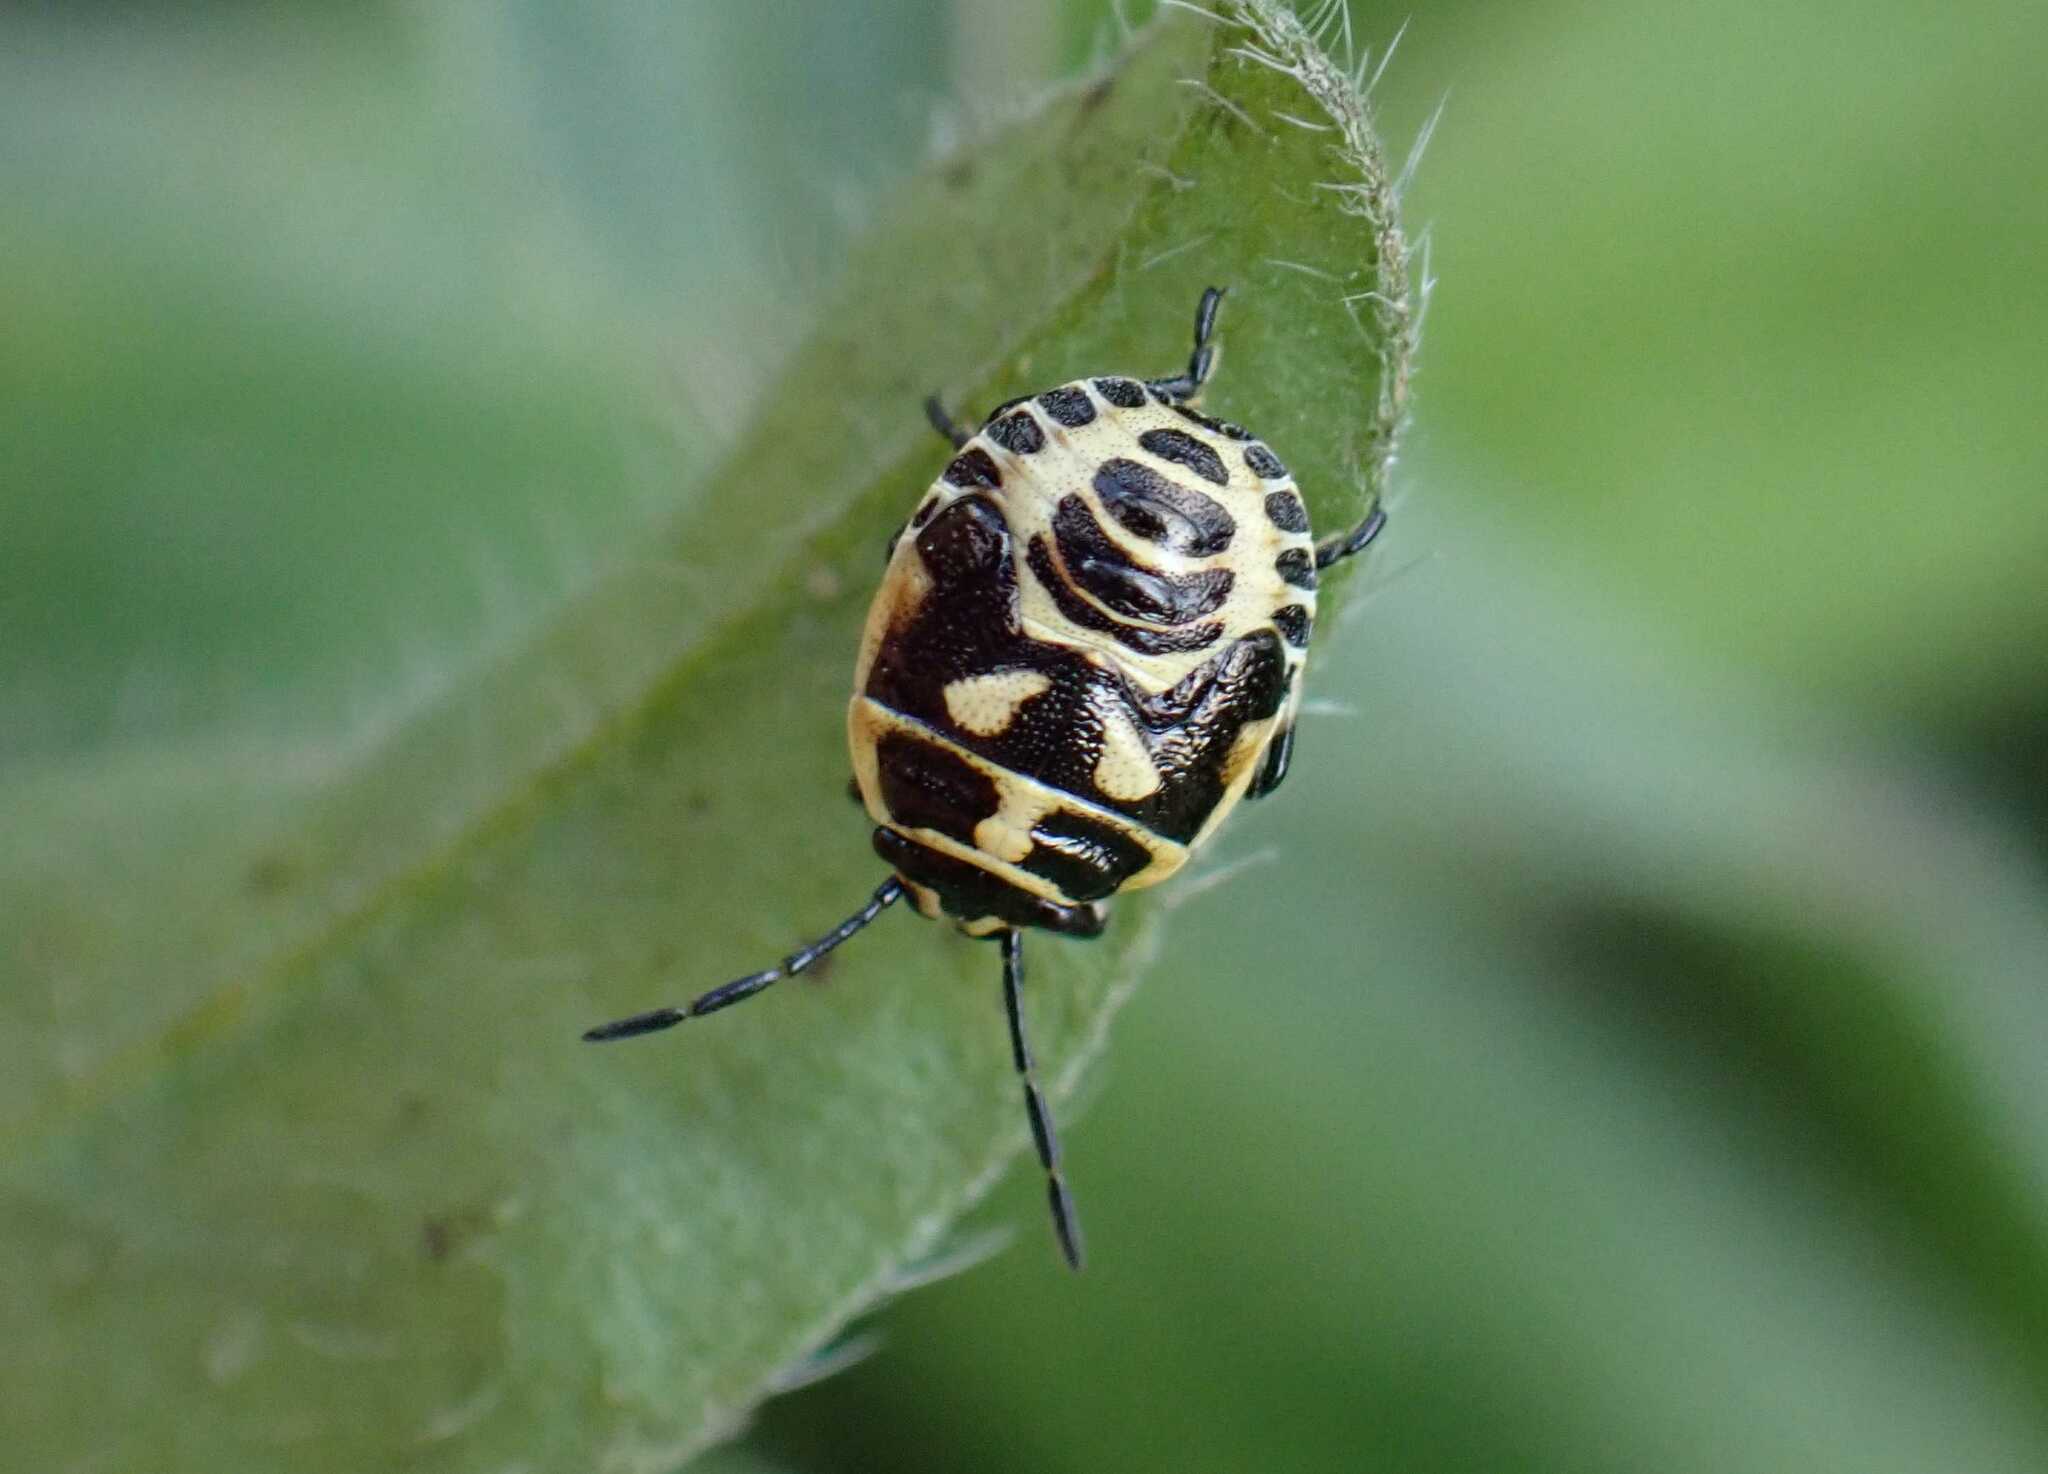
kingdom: Animalia
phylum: Arthropoda
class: Insecta
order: Hemiptera
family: Pentatomidae
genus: Eurydema
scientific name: Eurydema oleracea
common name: Cabbage bug
